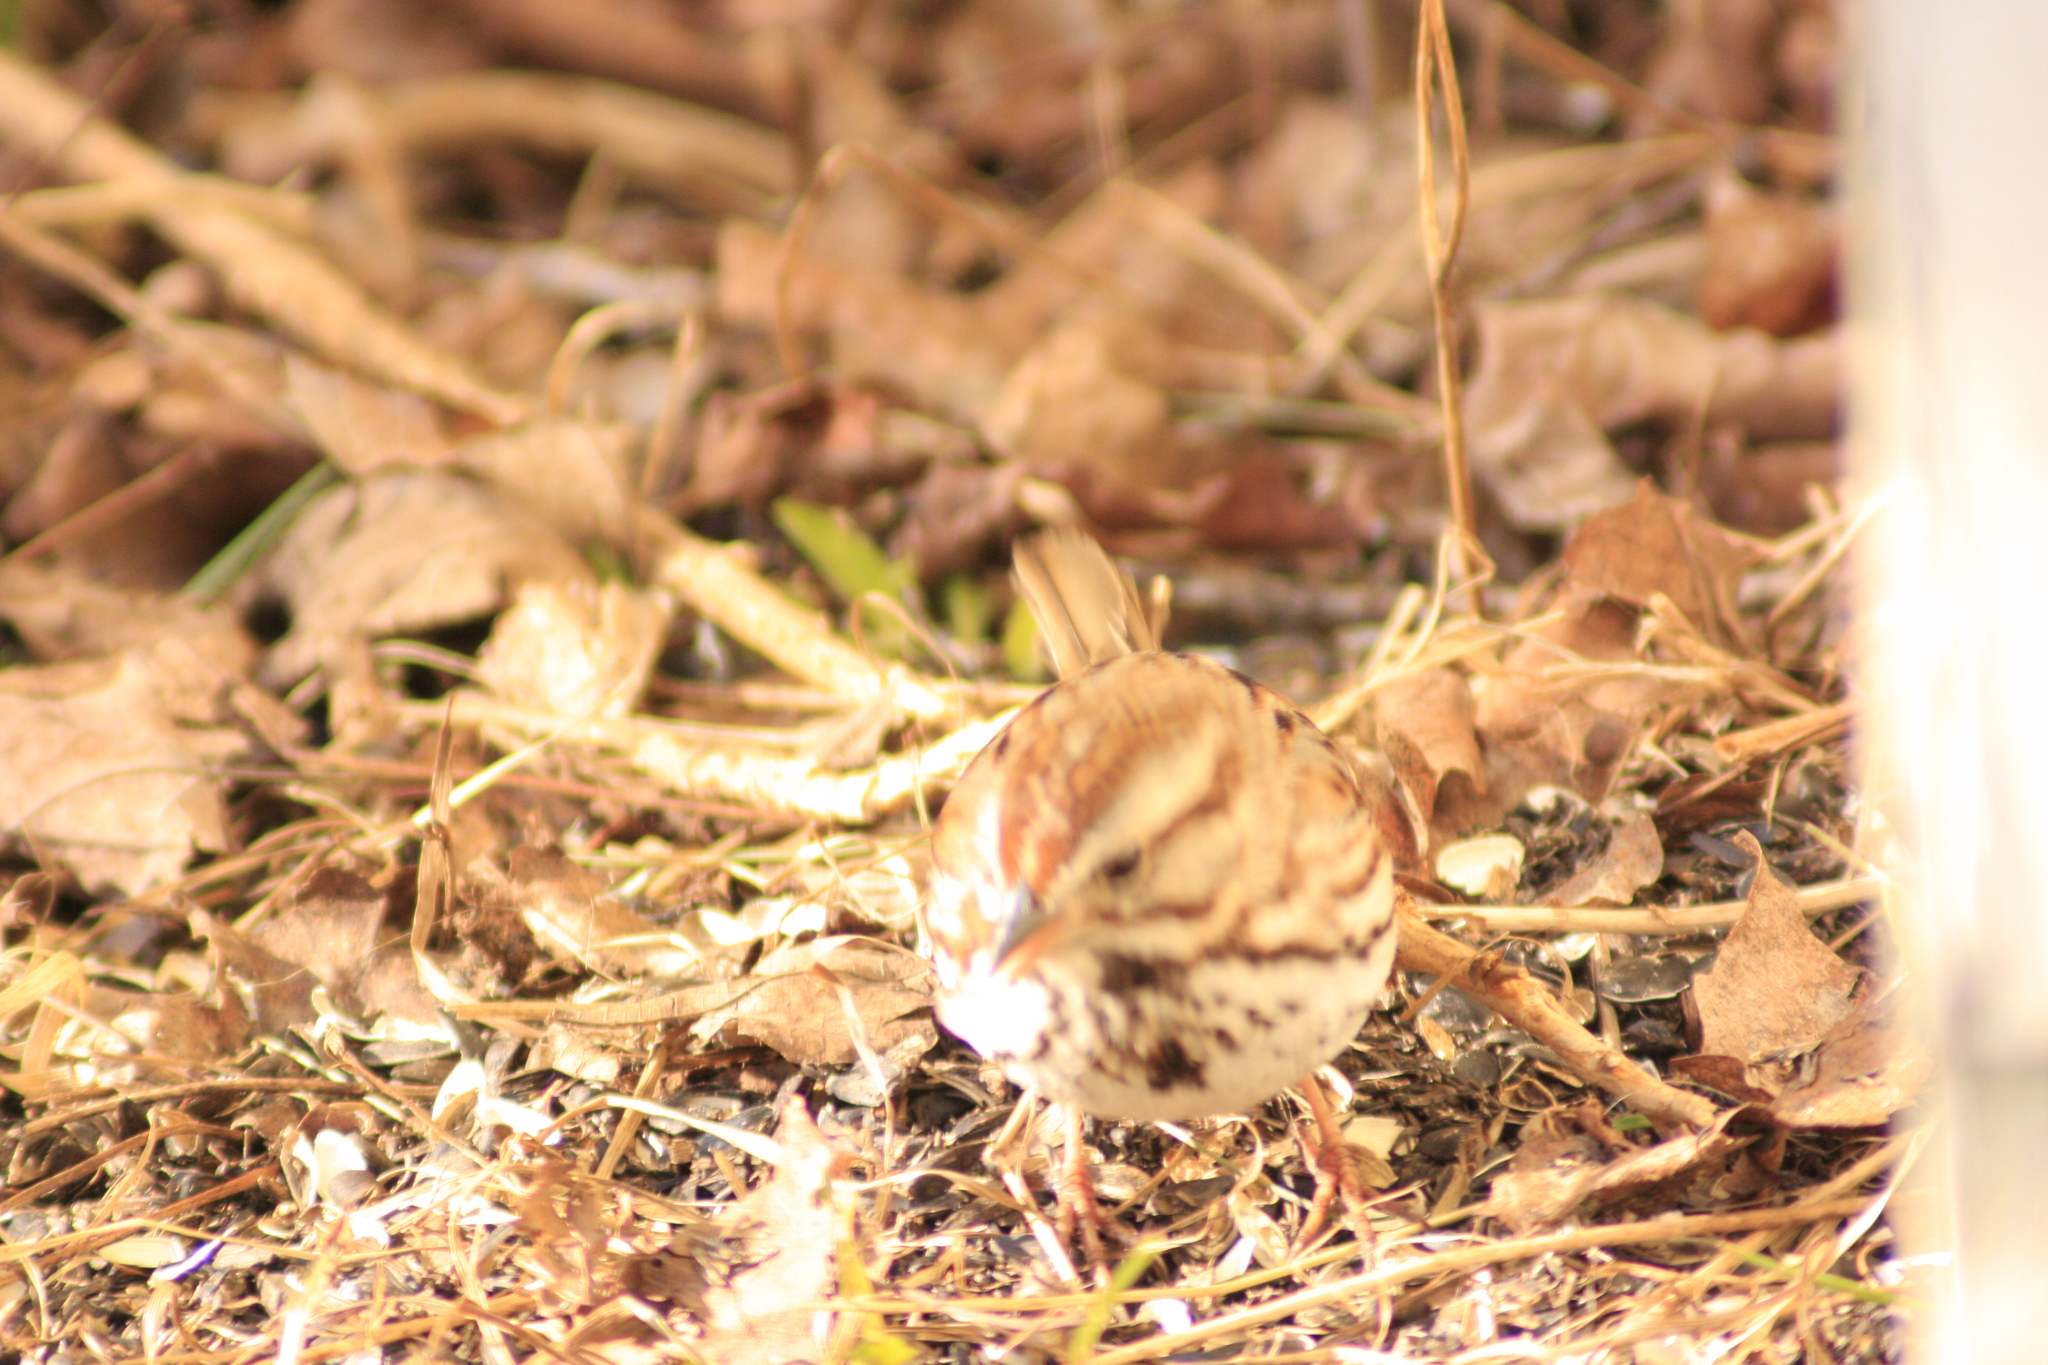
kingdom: Animalia
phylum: Chordata
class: Aves
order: Passeriformes
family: Passerellidae
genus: Melospiza
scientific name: Melospiza melodia
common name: Song sparrow
